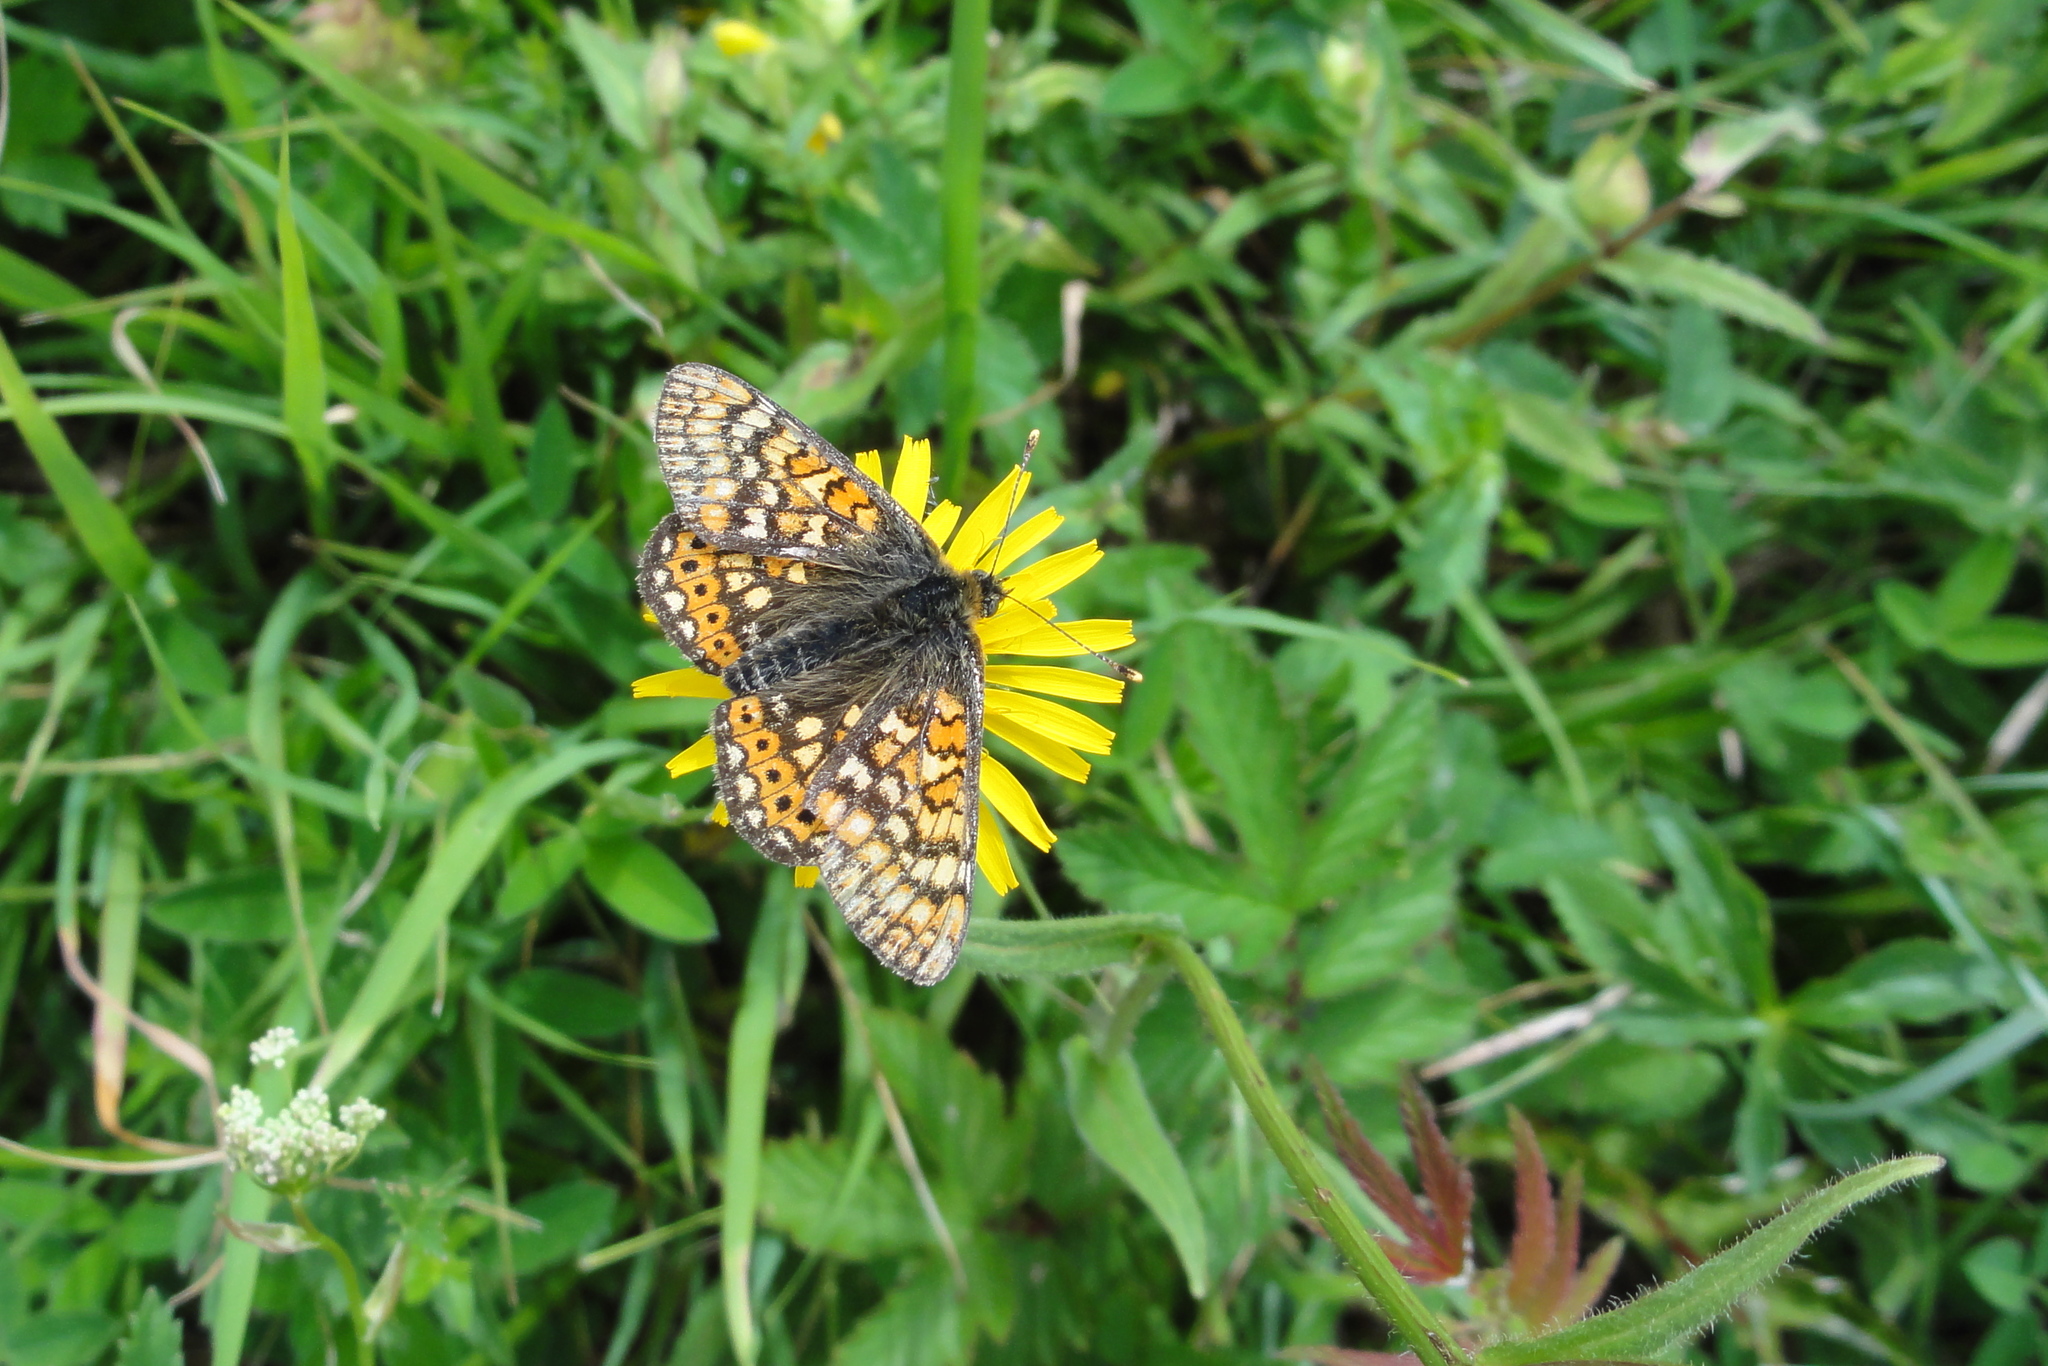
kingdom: Animalia
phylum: Arthropoda
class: Insecta
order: Lepidoptera
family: Nymphalidae
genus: Euphydryas
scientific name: Euphydryas aurinia
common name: Marsh fritillary
